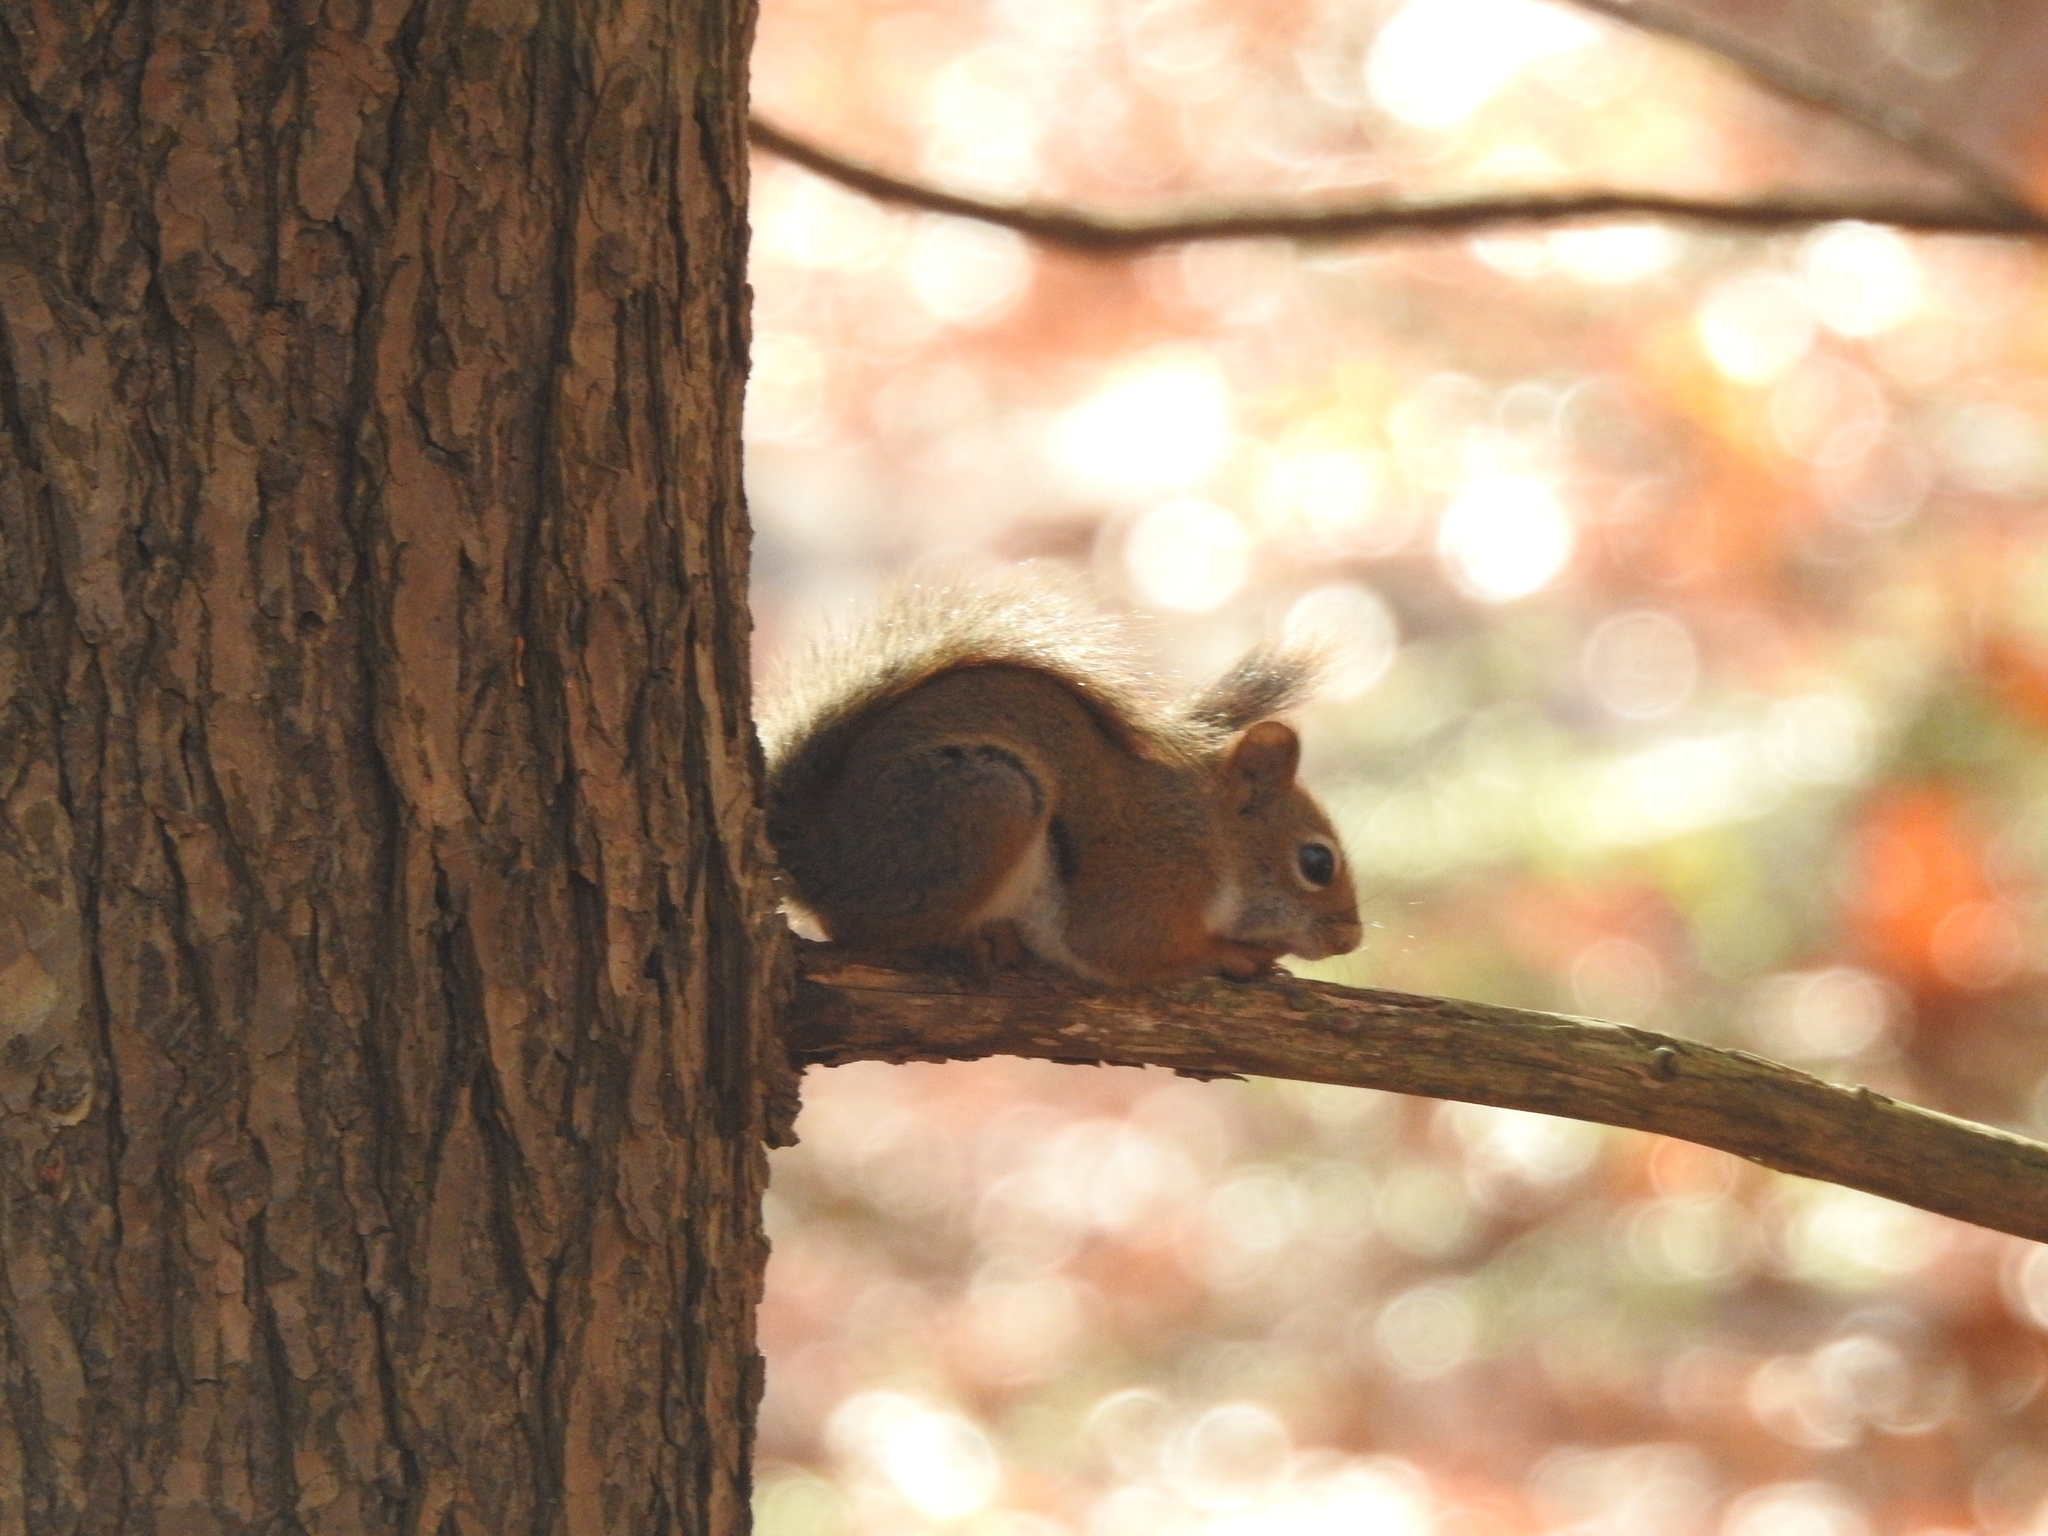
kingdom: Animalia
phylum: Chordata
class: Mammalia
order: Rodentia
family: Sciuridae
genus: Tamiasciurus
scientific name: Tamiasciurus hudsonicus
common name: Red squirrel
